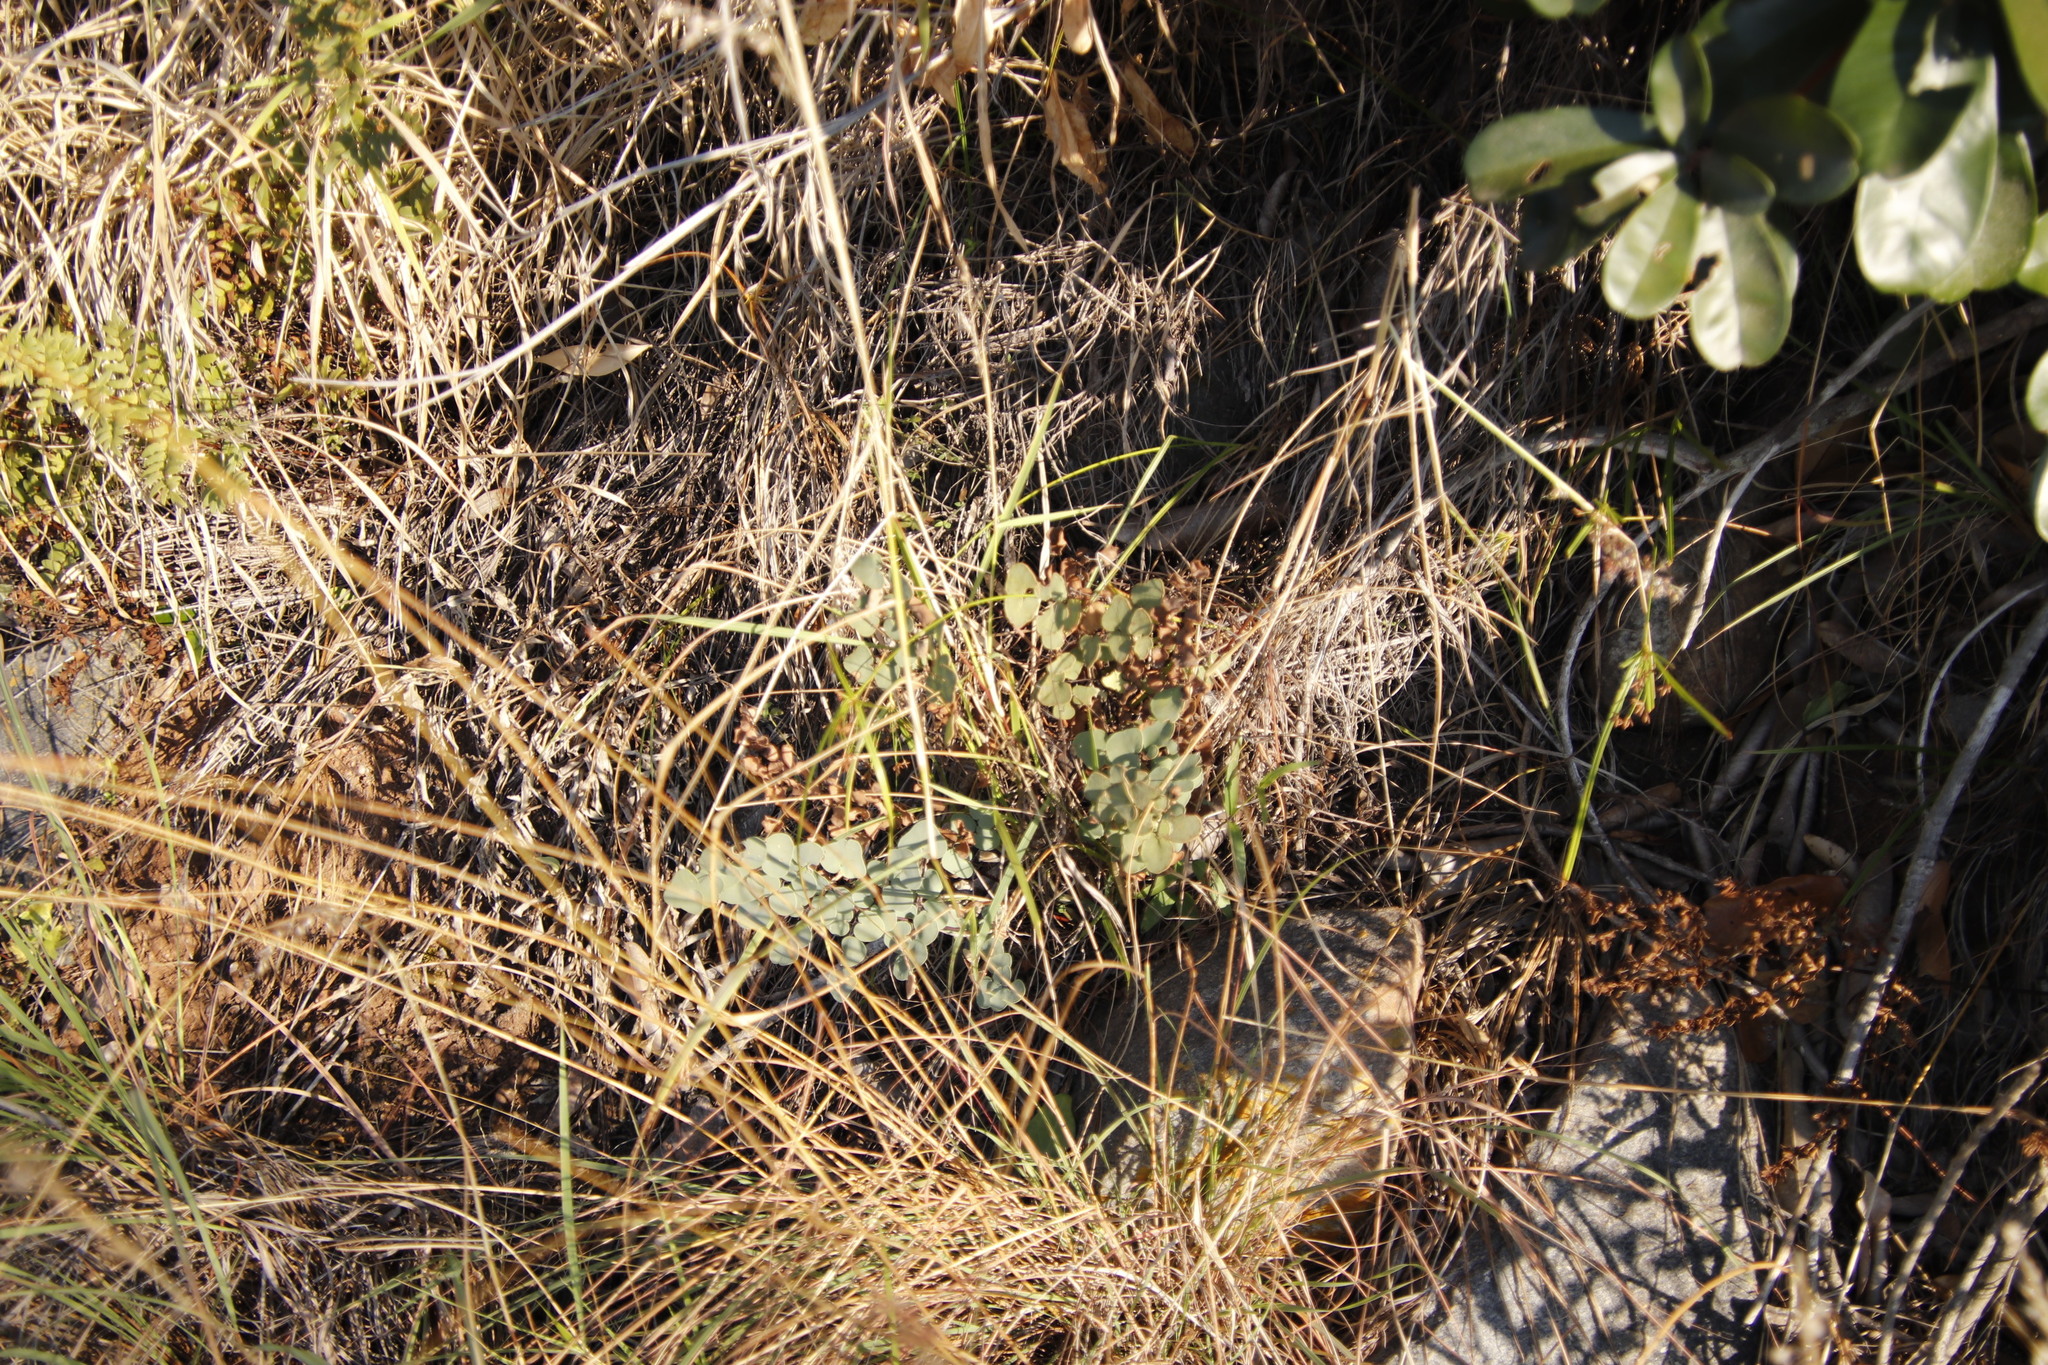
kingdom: Plantae
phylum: Tracheophyta
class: Polypodiopsida
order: Polypodiales
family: Pteridaceae
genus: Pellaea
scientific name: Pellaea calomelanos
